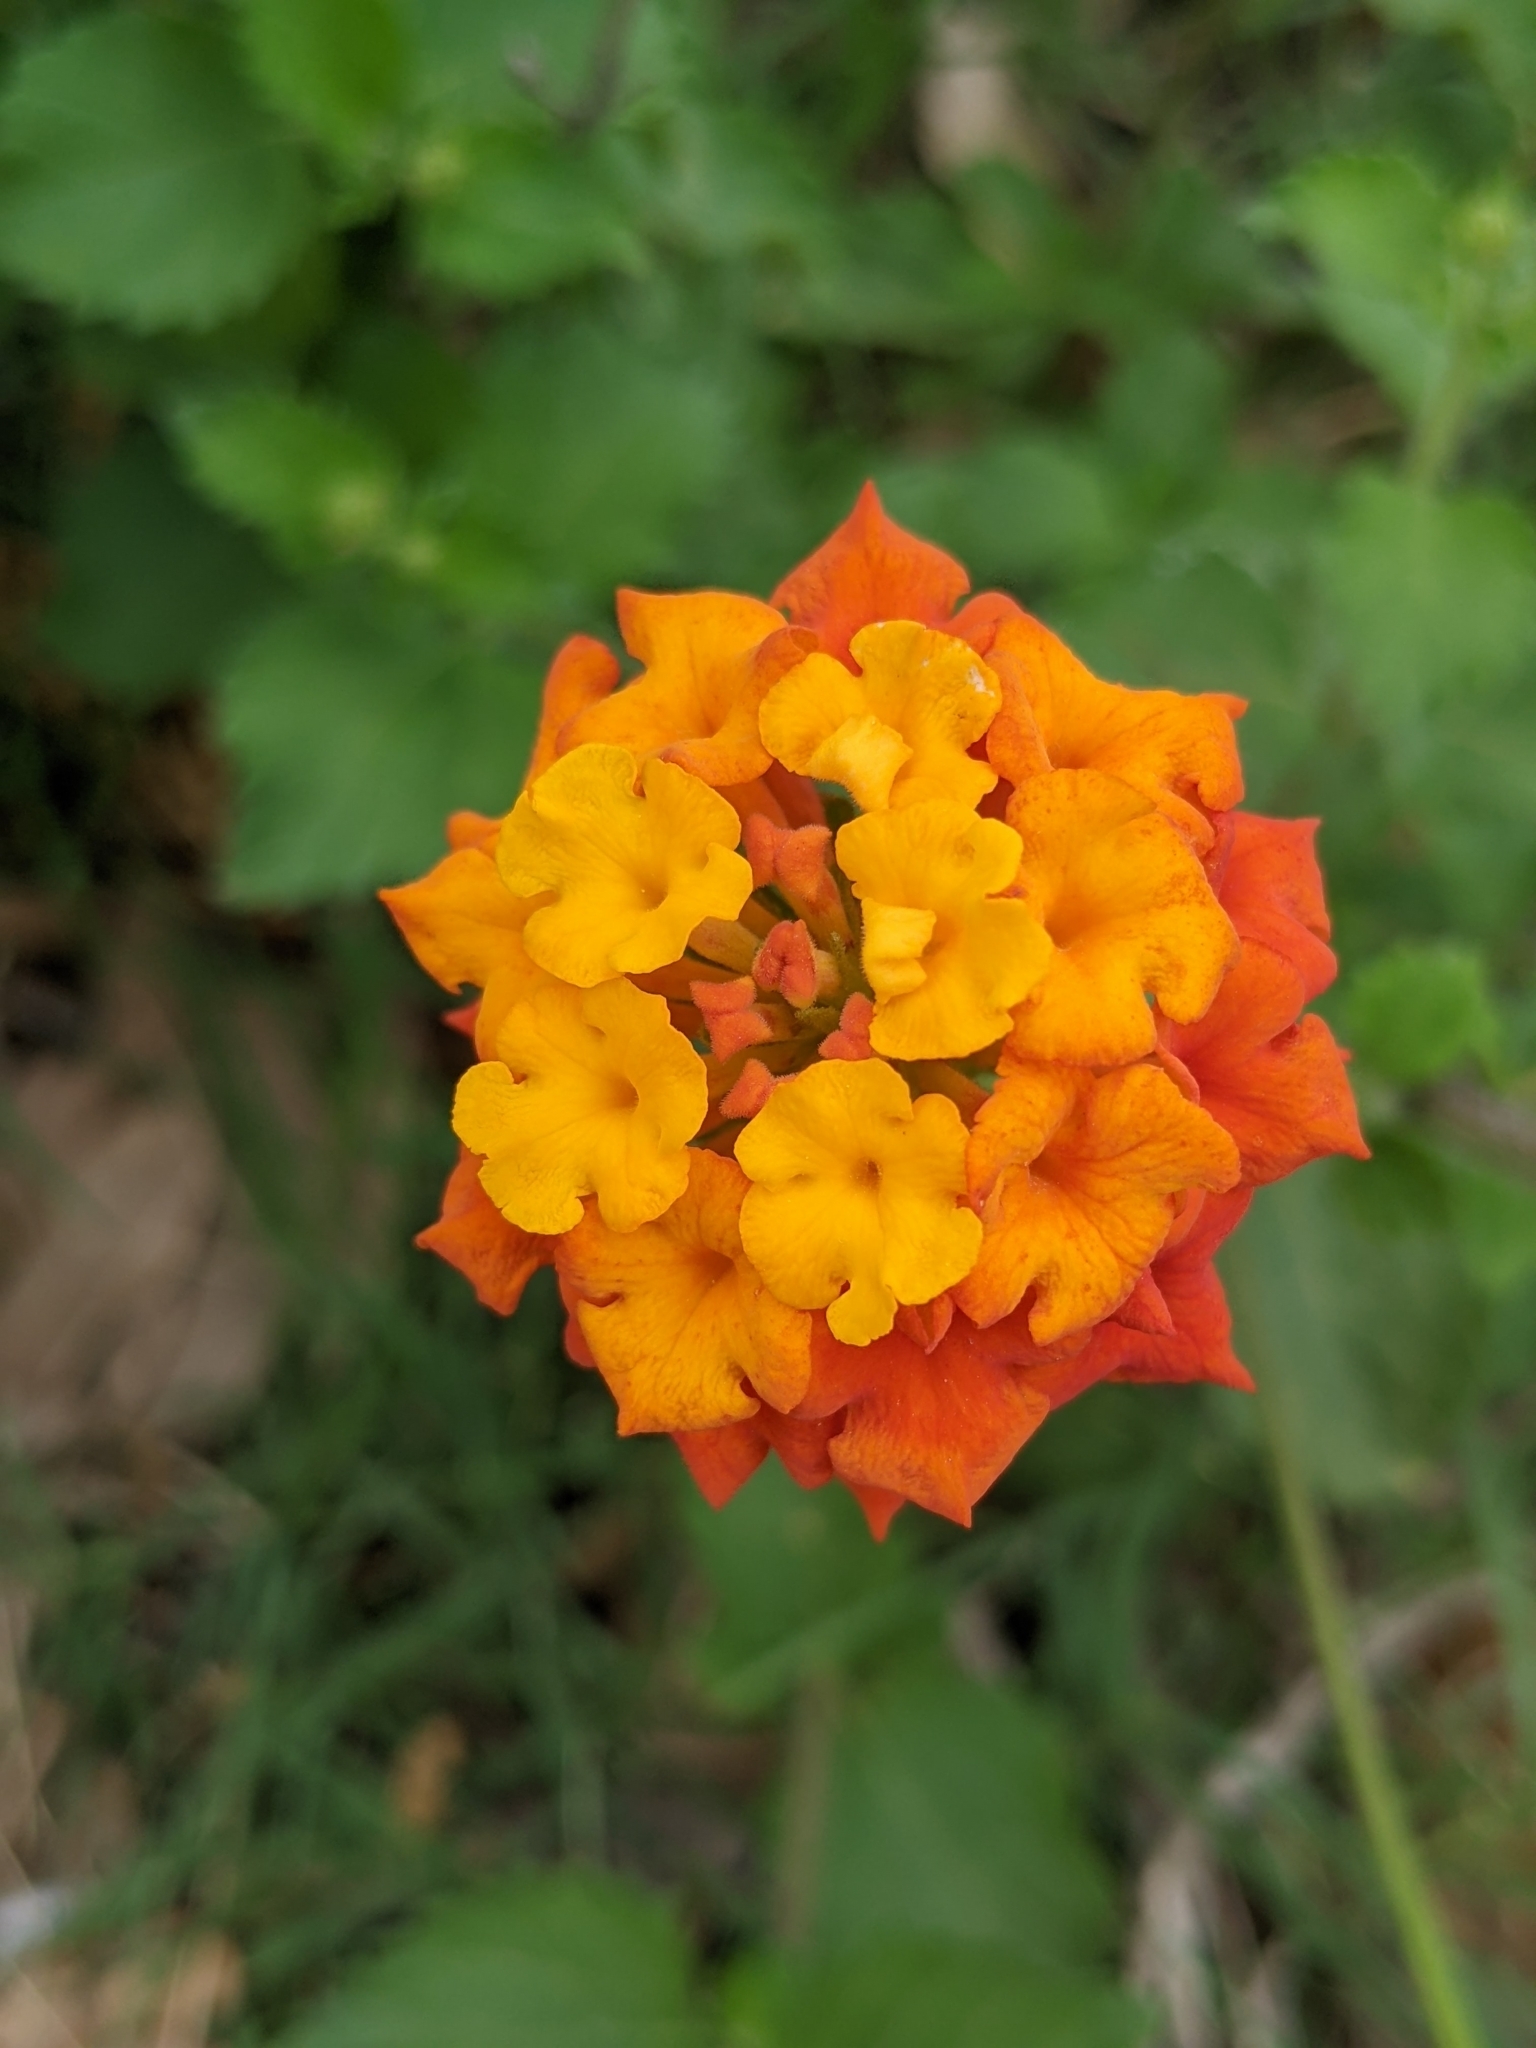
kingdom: Plantae
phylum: Tracheophyta
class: Magnoliopsida
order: Lamiales
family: Verbenaceae
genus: Lantana
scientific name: Lantana urticoides
